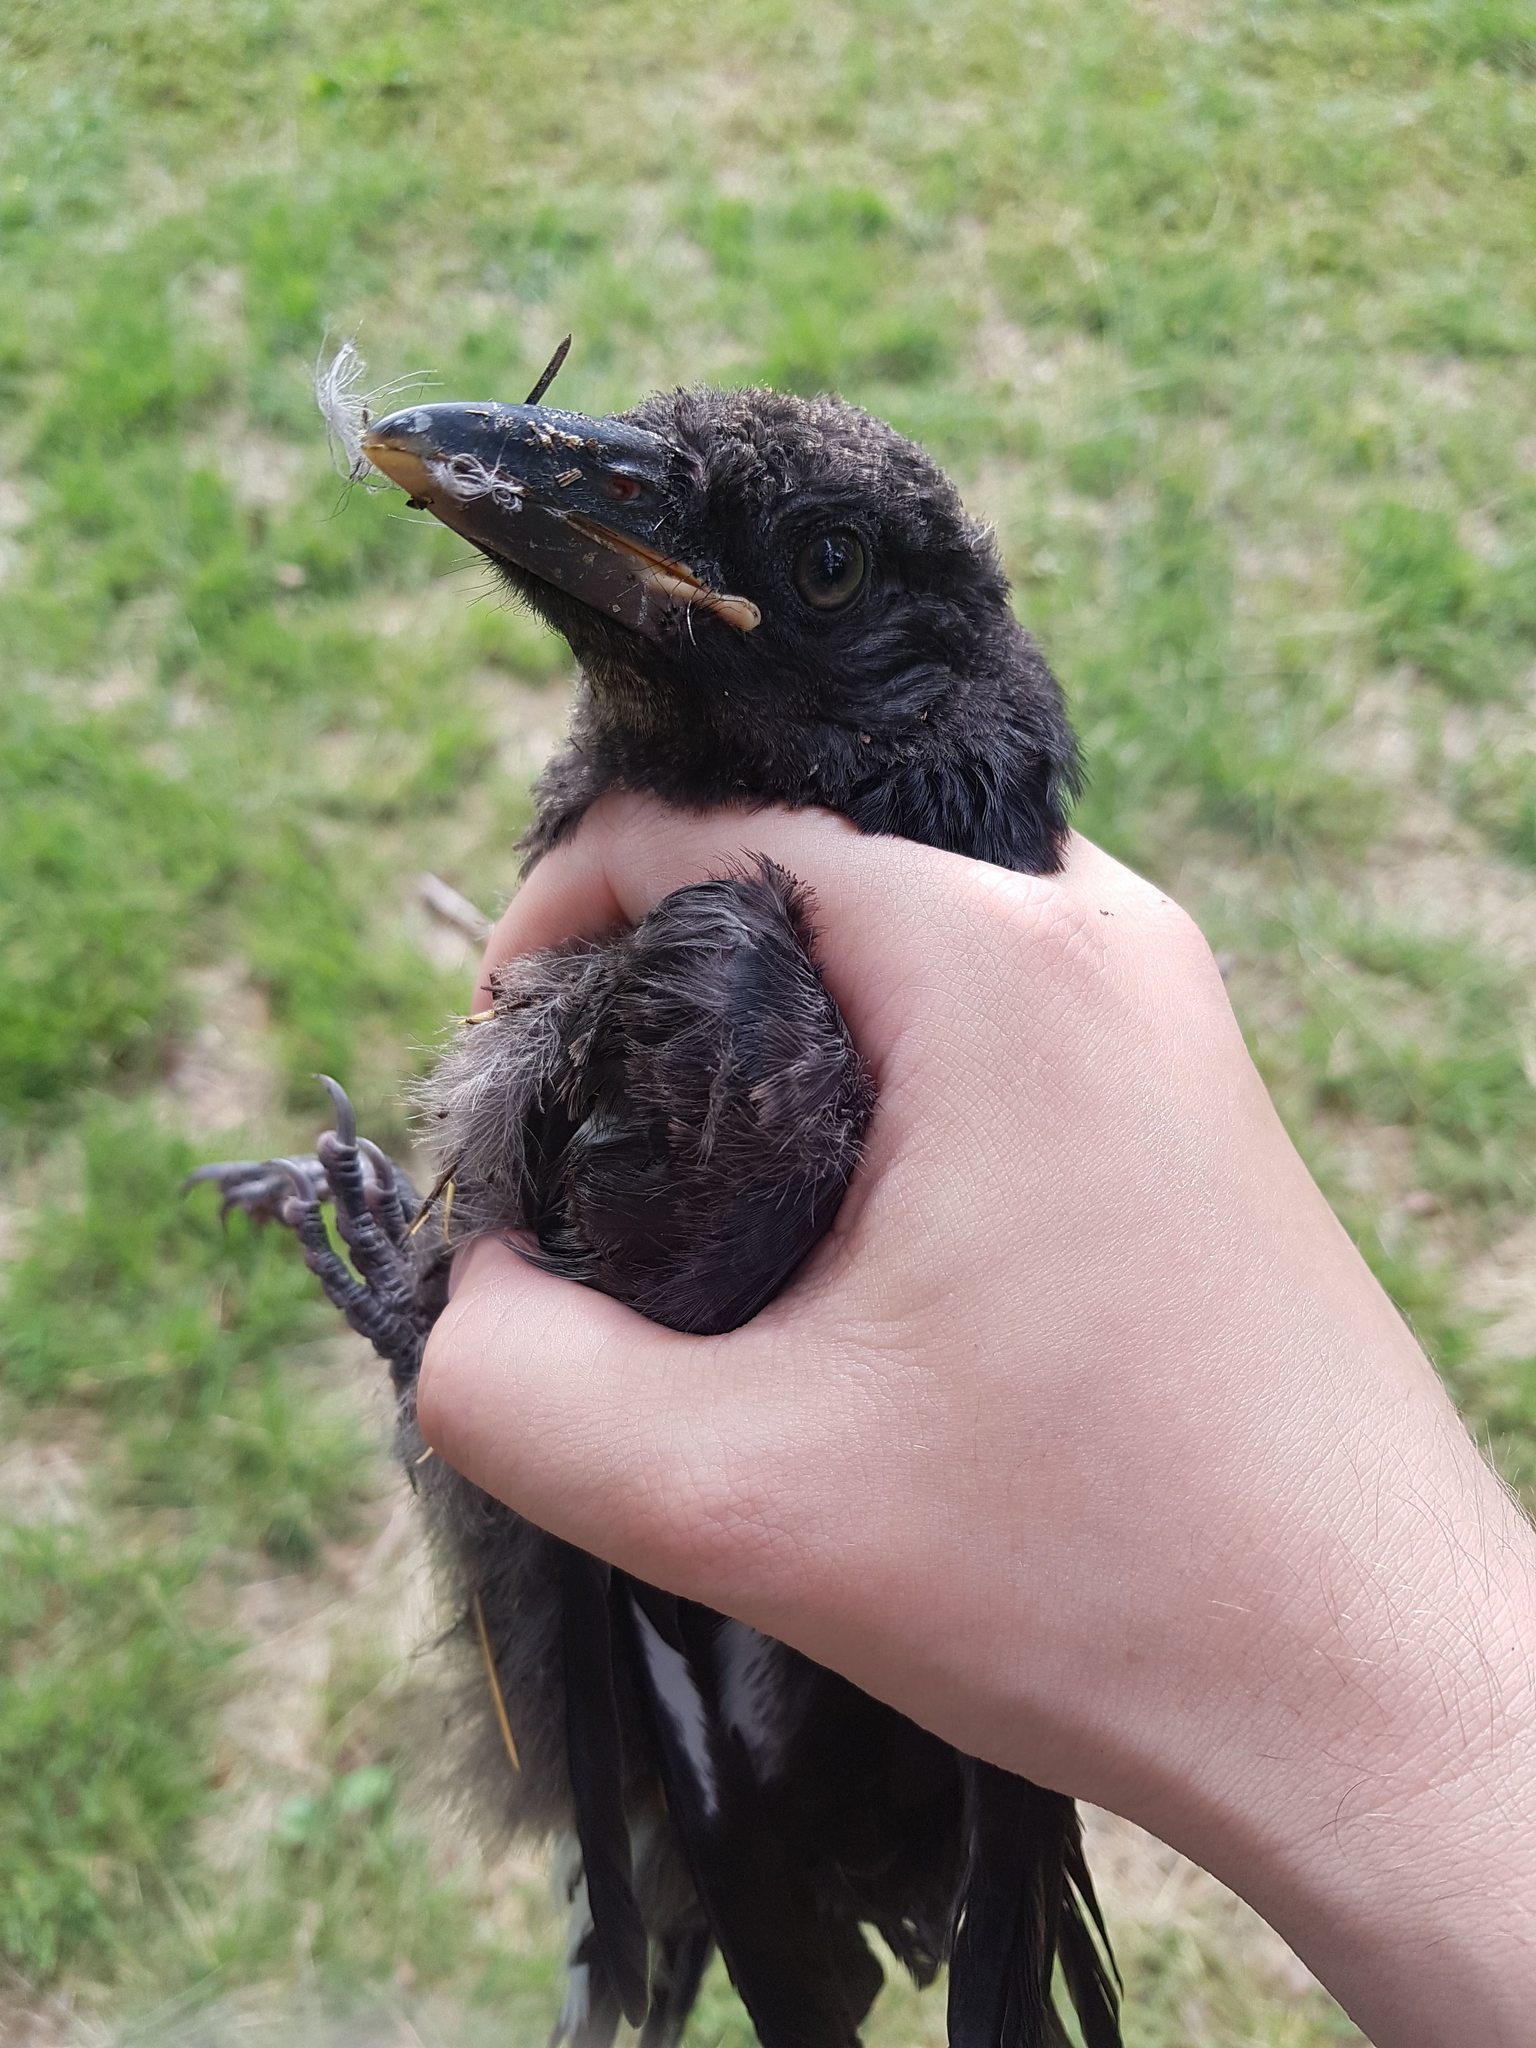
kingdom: Animalia
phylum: Chordata
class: Aves
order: Passeriformes
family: Cracticidae
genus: Strepera
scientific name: Strepera graculina
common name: Pied currawong
